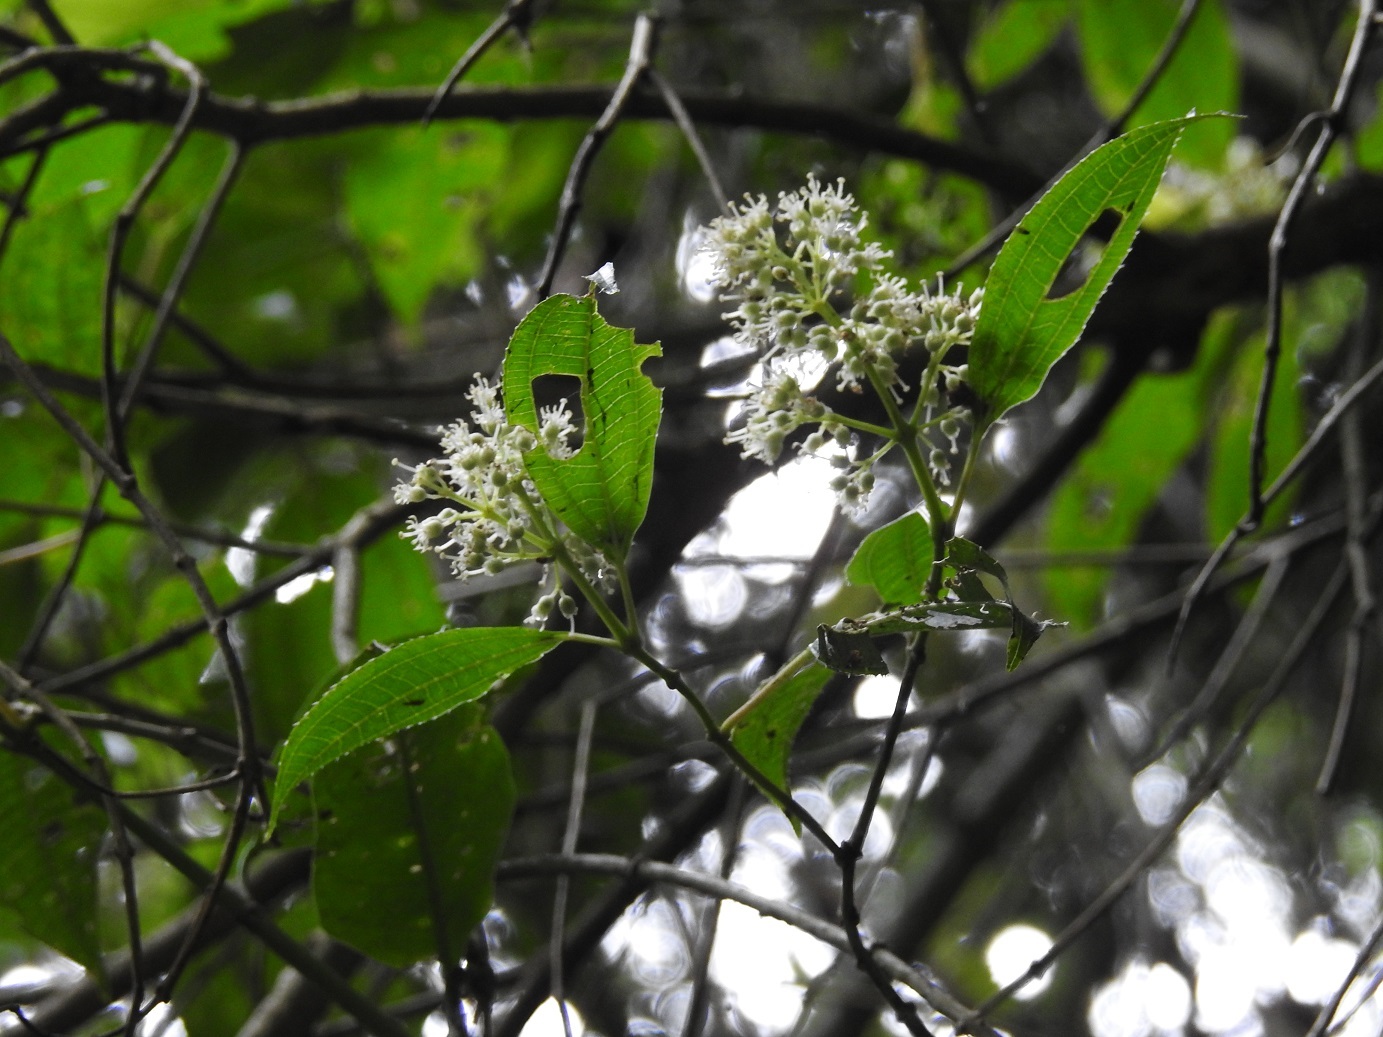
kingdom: Plantae
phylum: Tracheophyta
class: Magnoliopsida
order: Myrtales
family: Melastomataceae
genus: Miconia
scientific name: Miconia glaberrima
